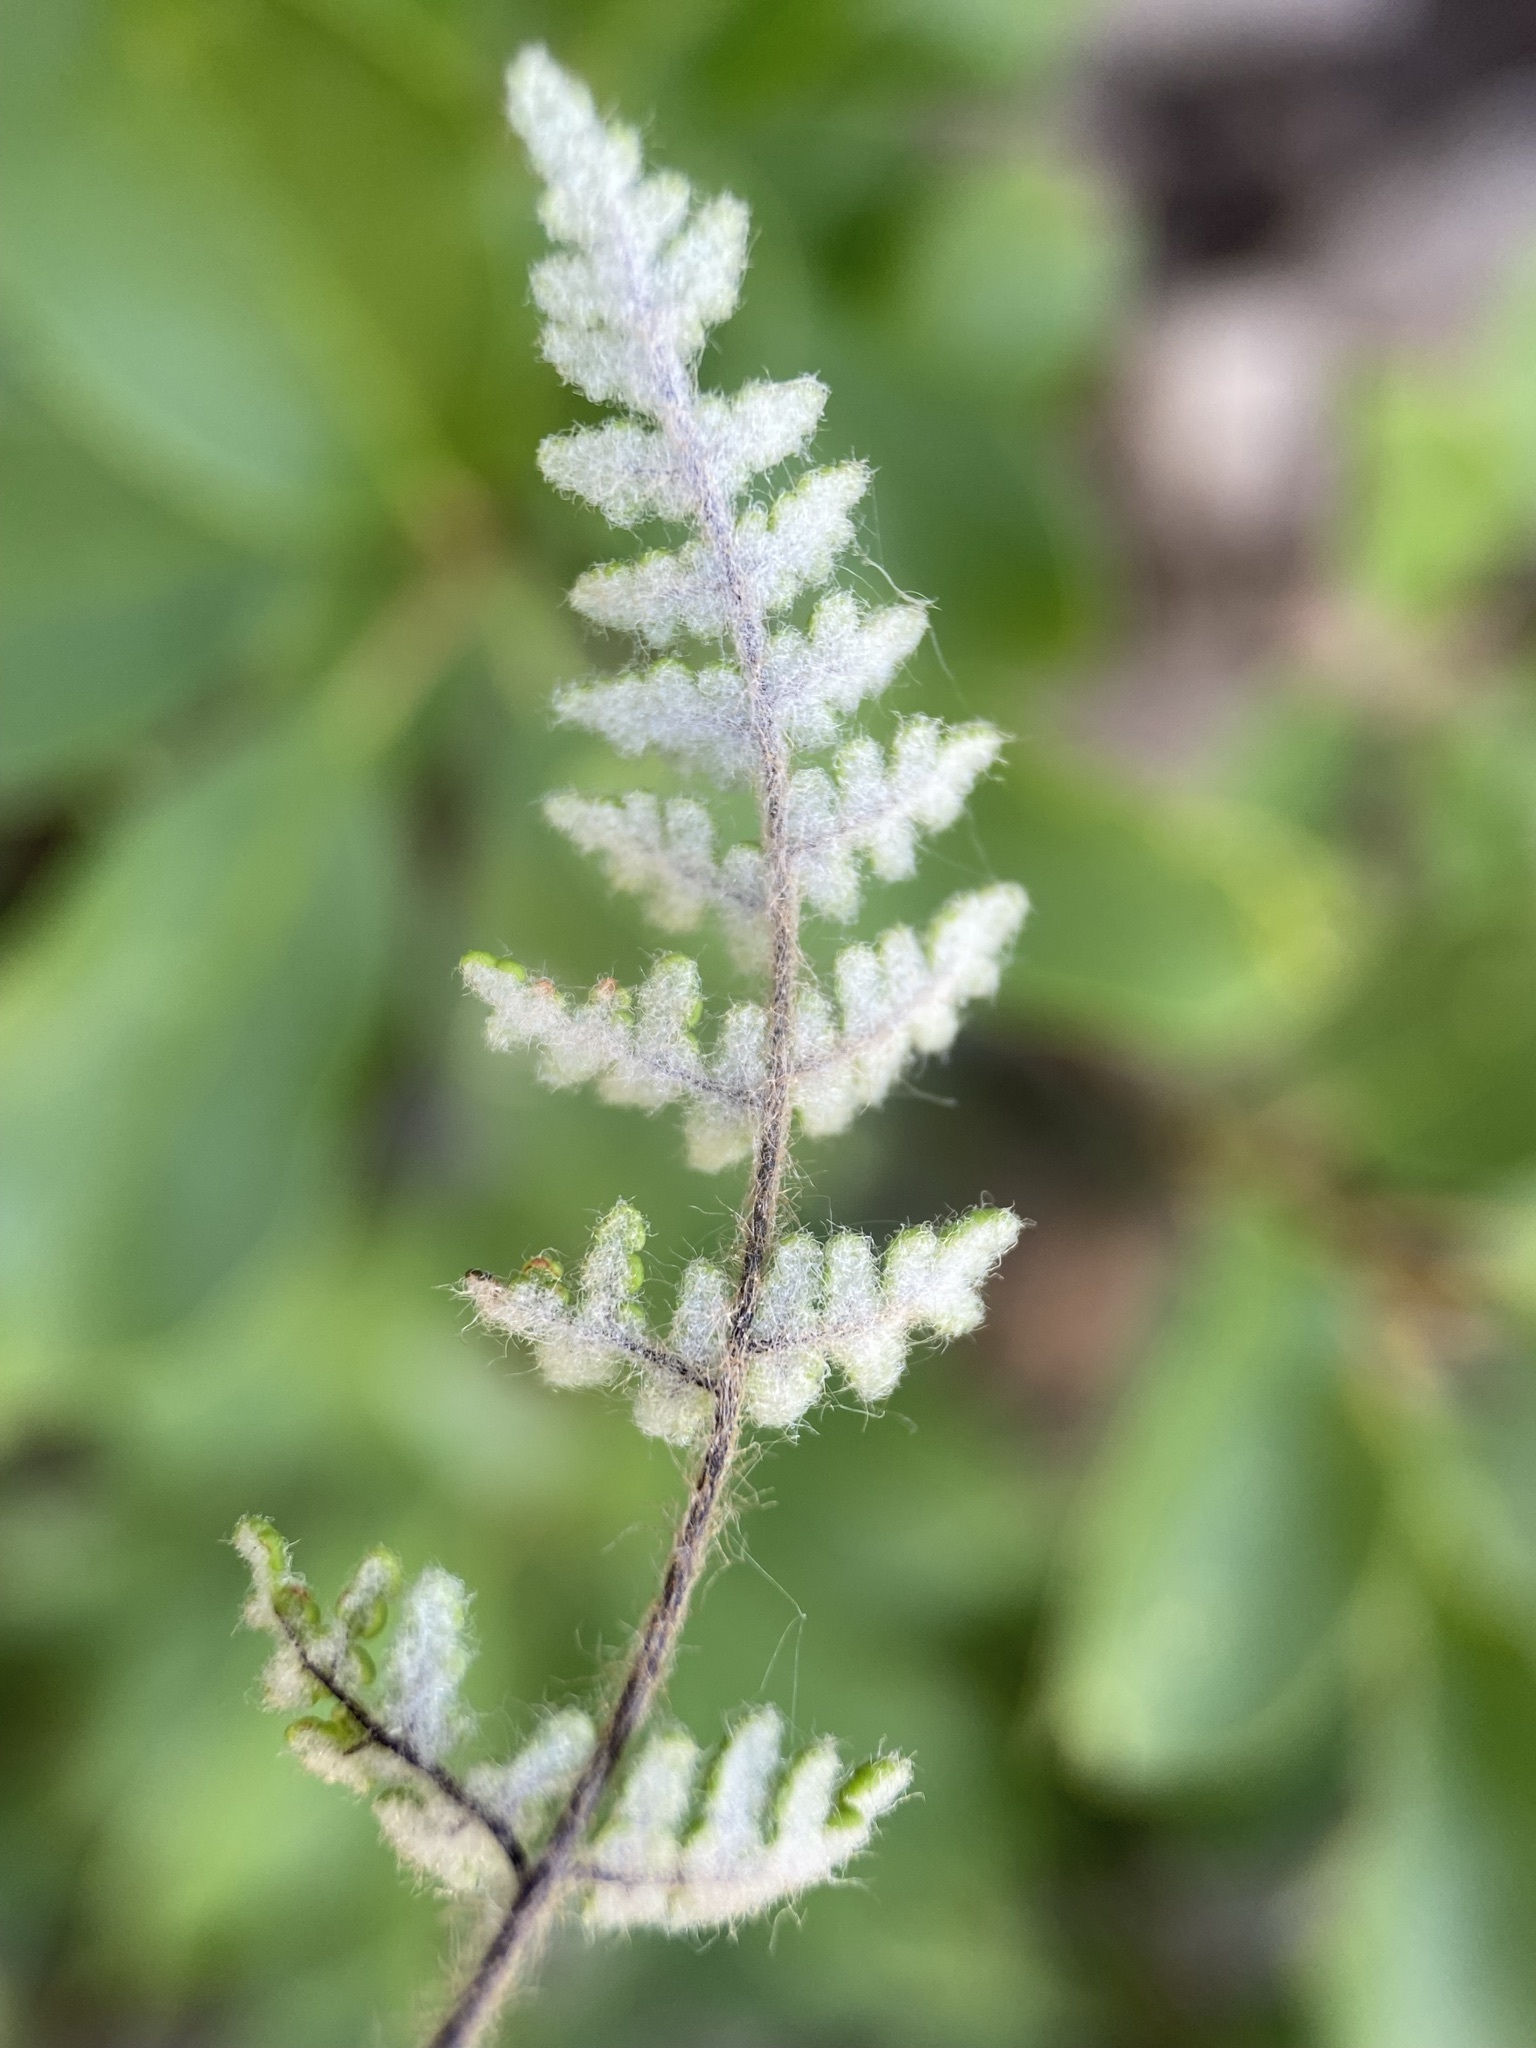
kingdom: Plantae
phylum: Tracheophyta
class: Polypodiopsida
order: Polypodiales
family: Pteridaceae
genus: Myriopteris
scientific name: Myriopteris gracilis
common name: Fee's lip fern
